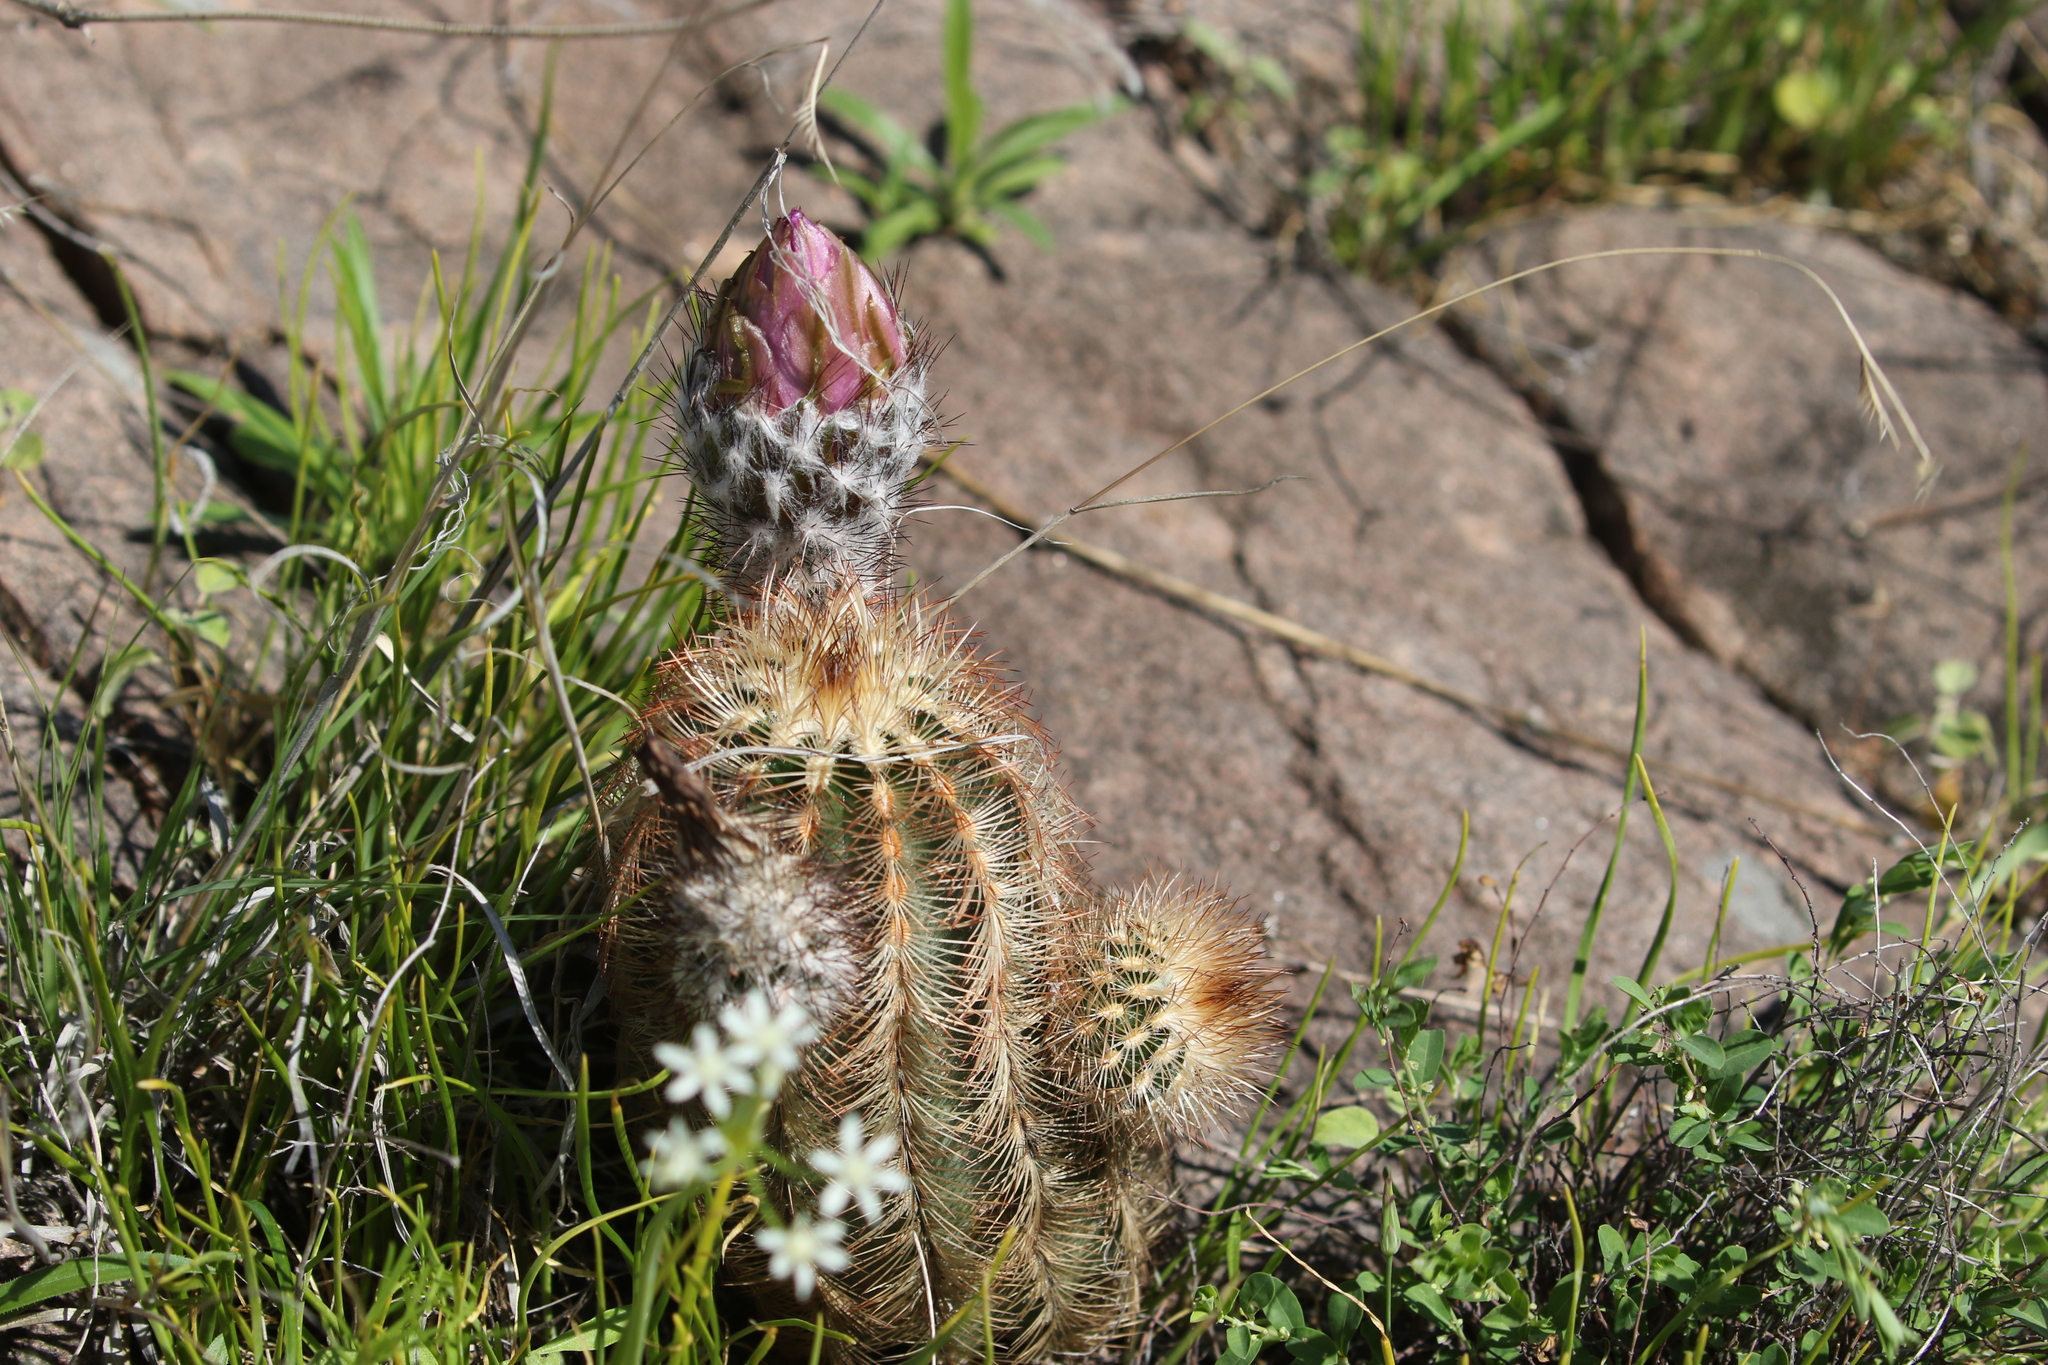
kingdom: Plantae
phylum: Tracheophyta
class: Magnoliopsida
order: Caryophyllales
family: Cactaceae
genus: Echinocereus
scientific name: Echinocereus reichenbachii
